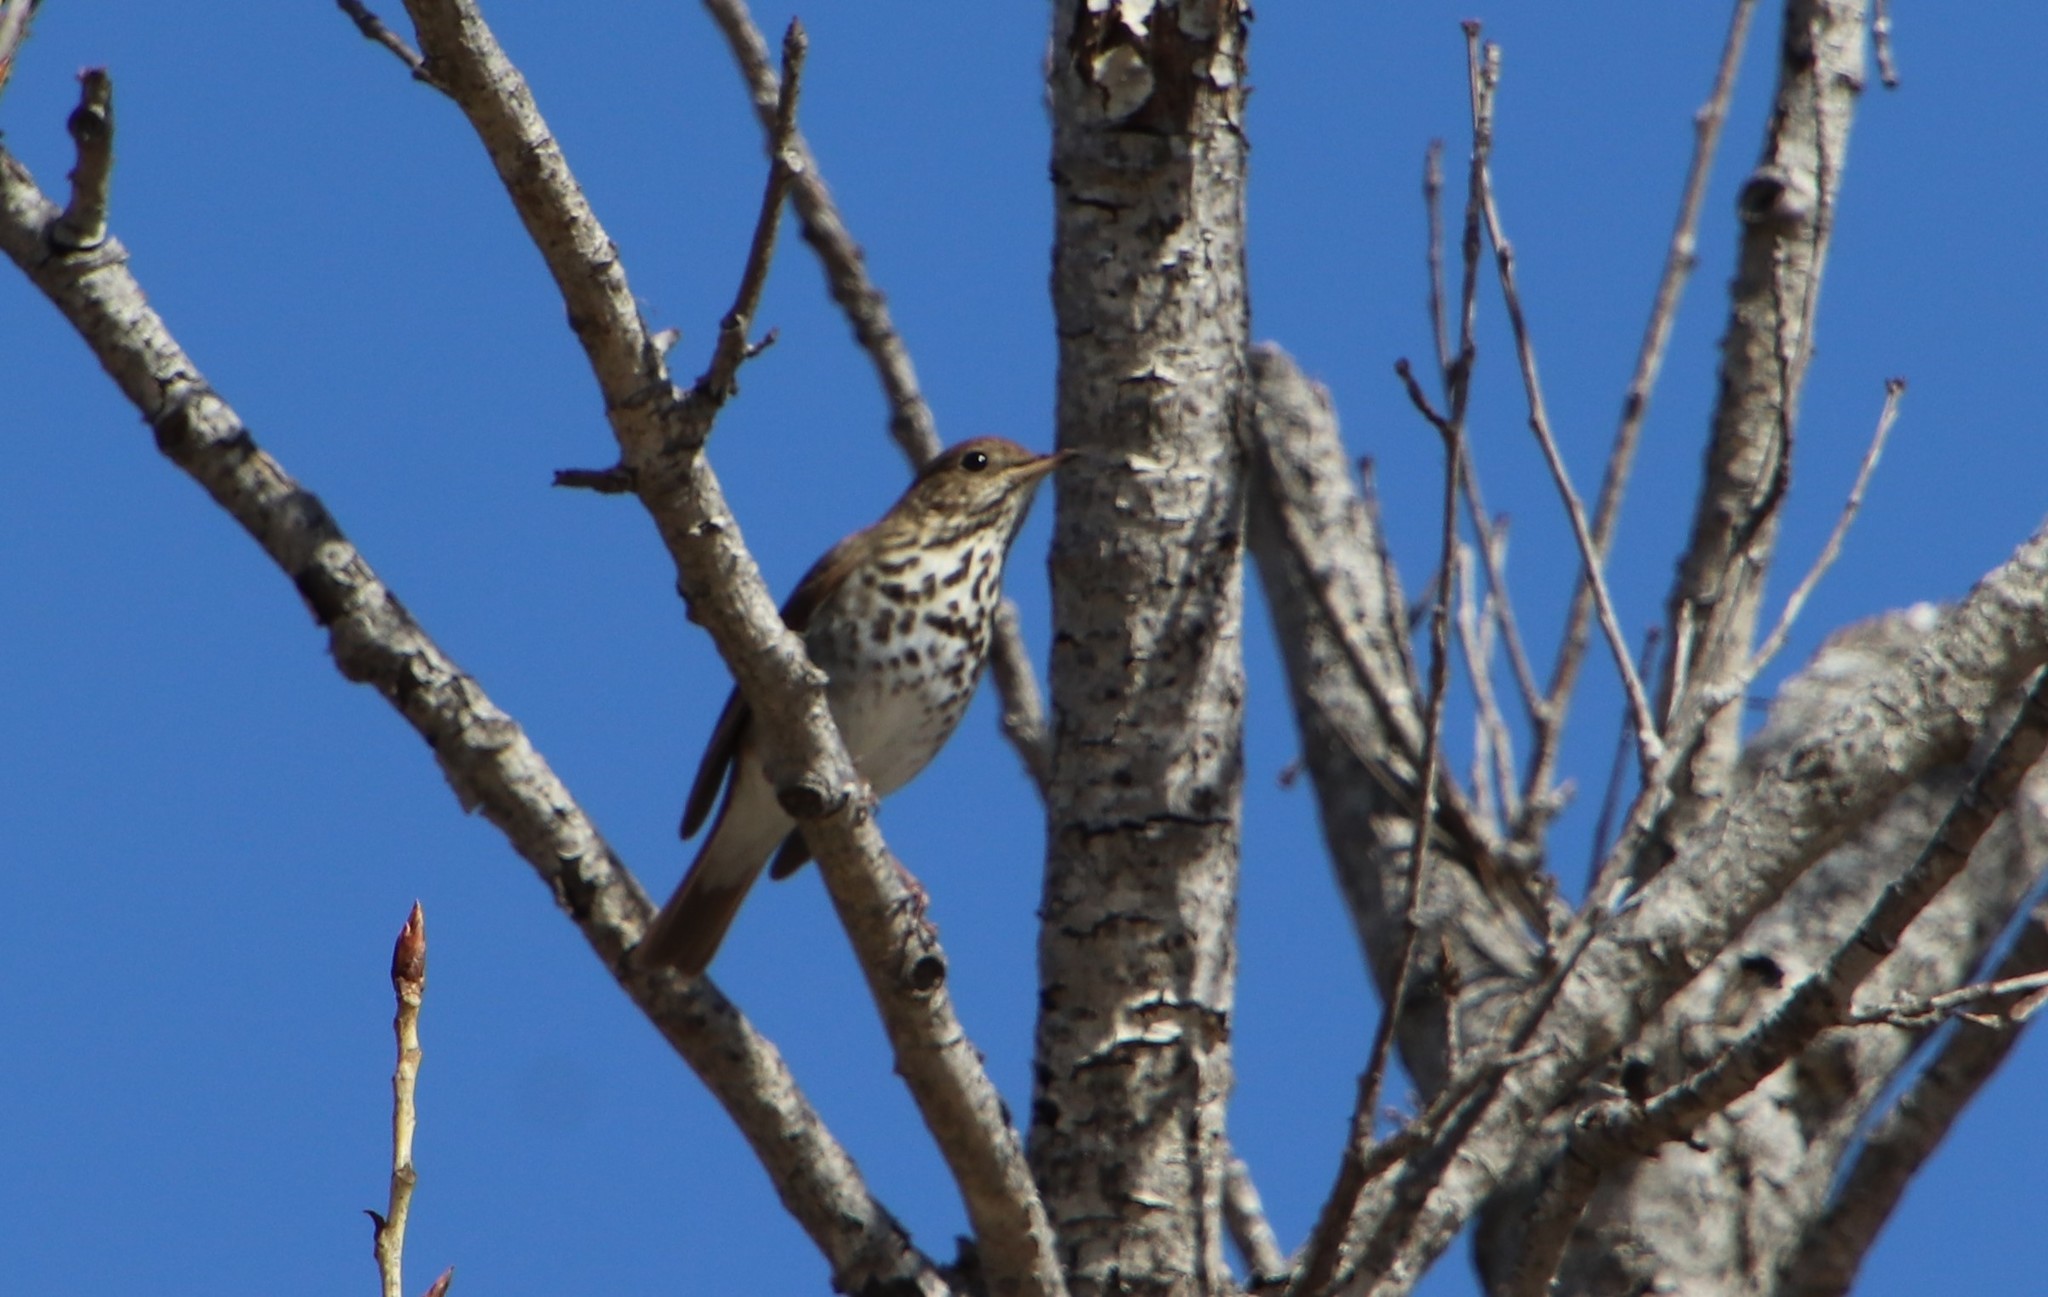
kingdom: Animalia
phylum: Chordata
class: Aves
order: Passeriformes
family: Turdidae
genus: Catharus
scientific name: Catharus guttatus
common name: Hermit thrush
